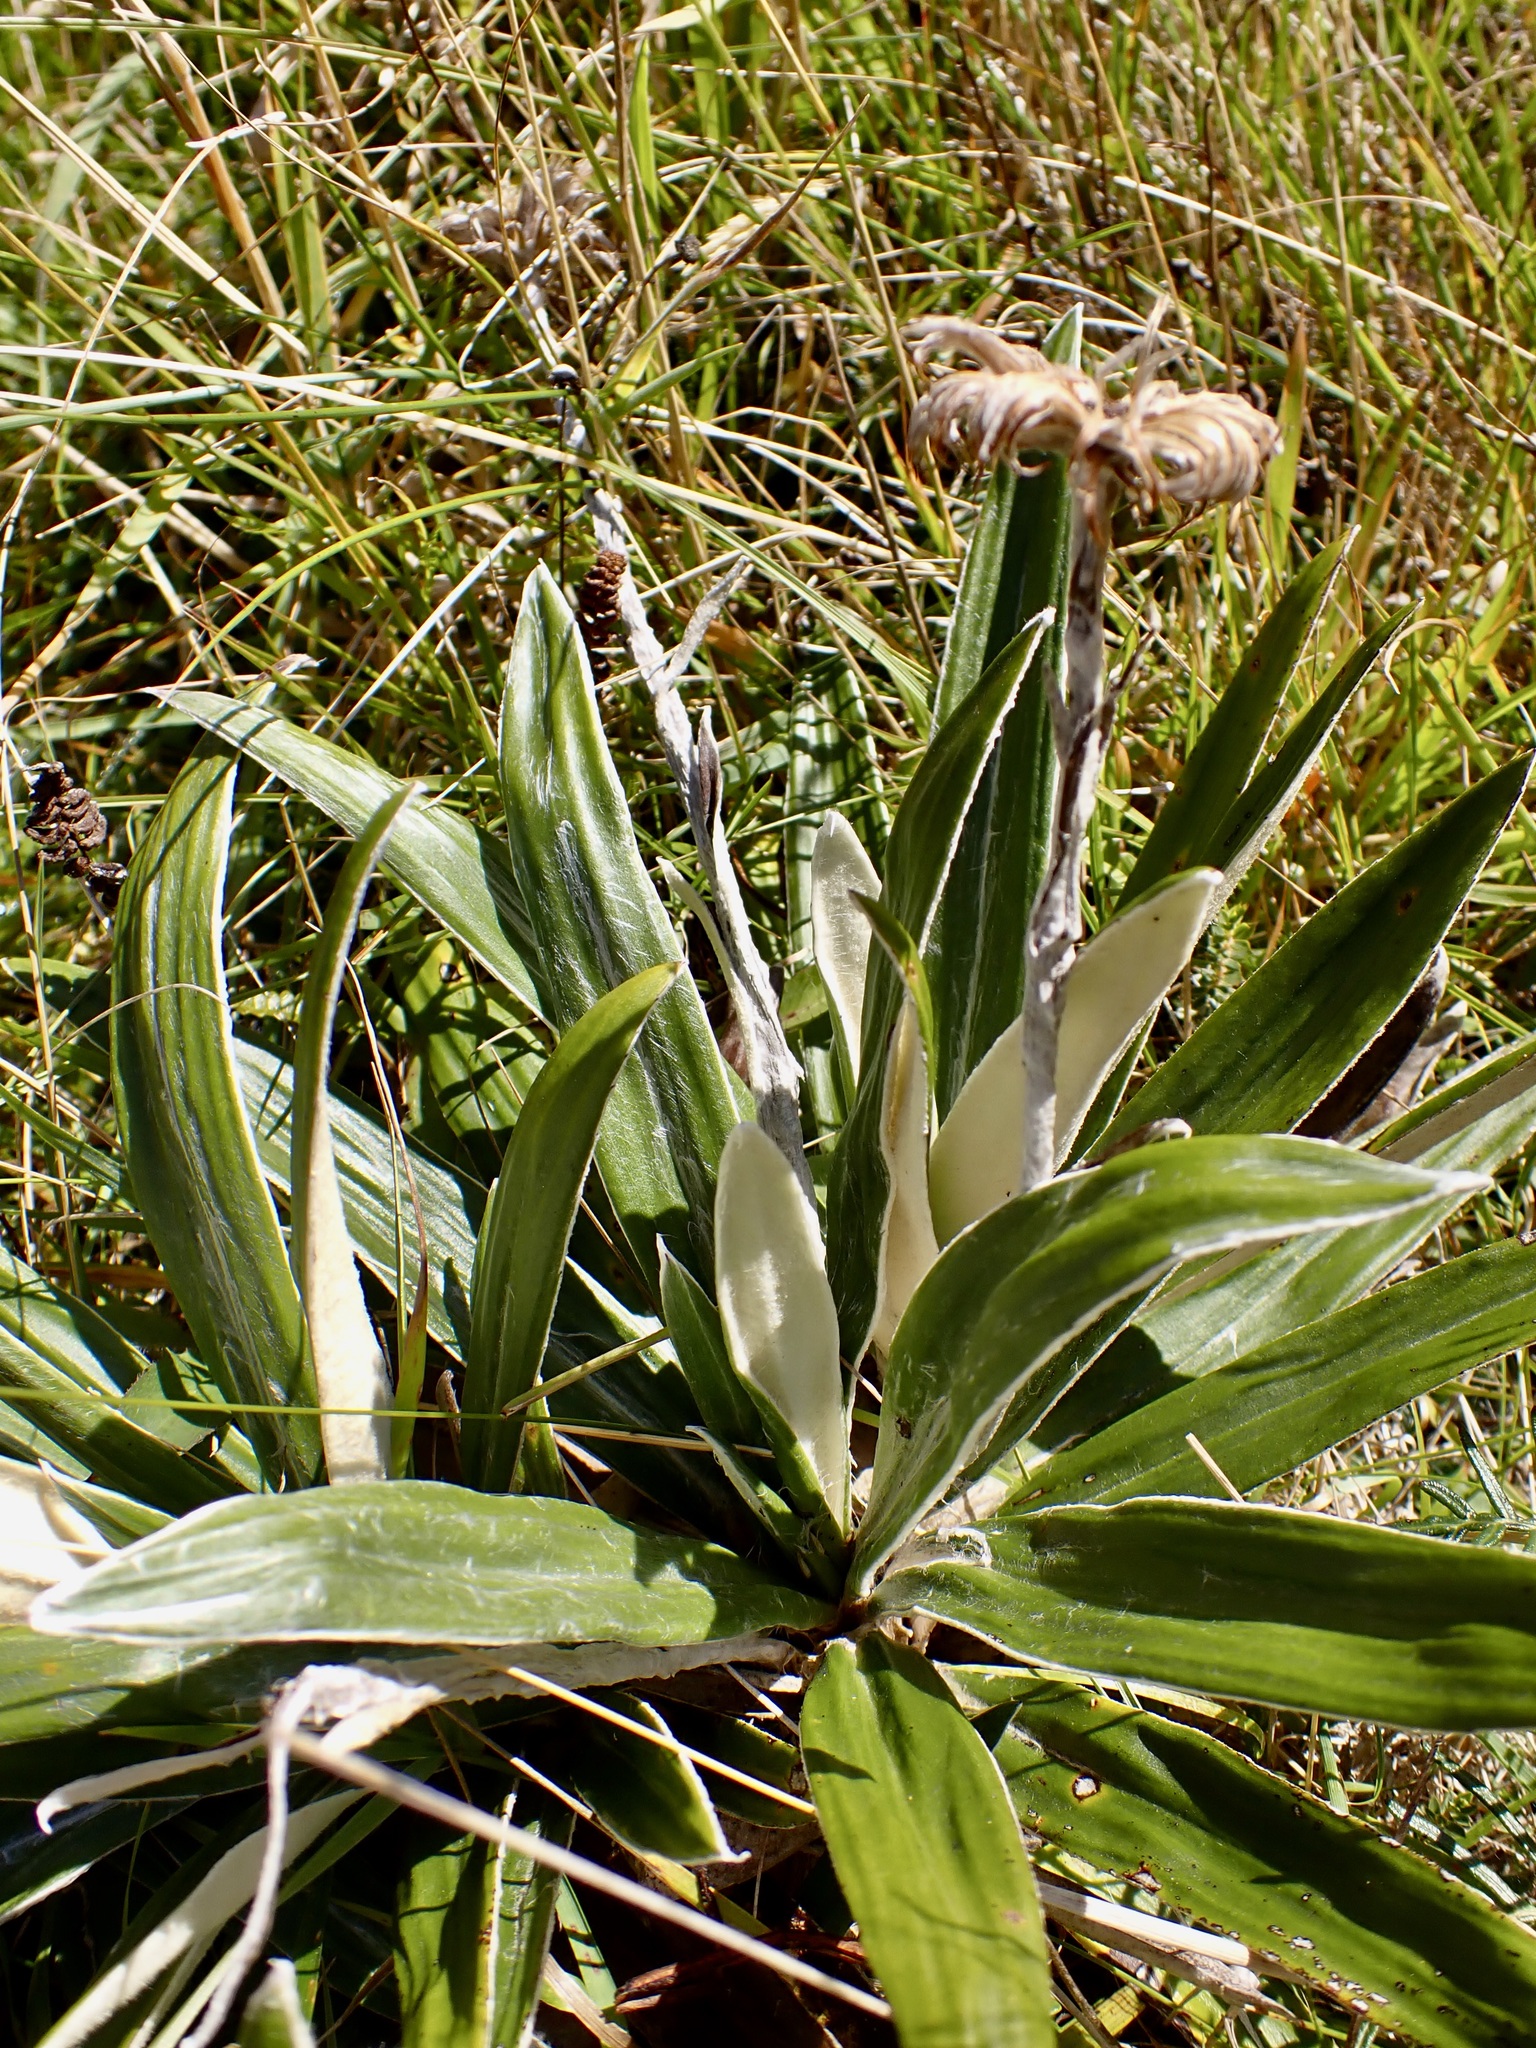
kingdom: Plantae
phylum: Tracheophyta
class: Magnoliopsida
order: Asterales
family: Asteraceae
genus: Celmisia
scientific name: Celmisia spectabilis
